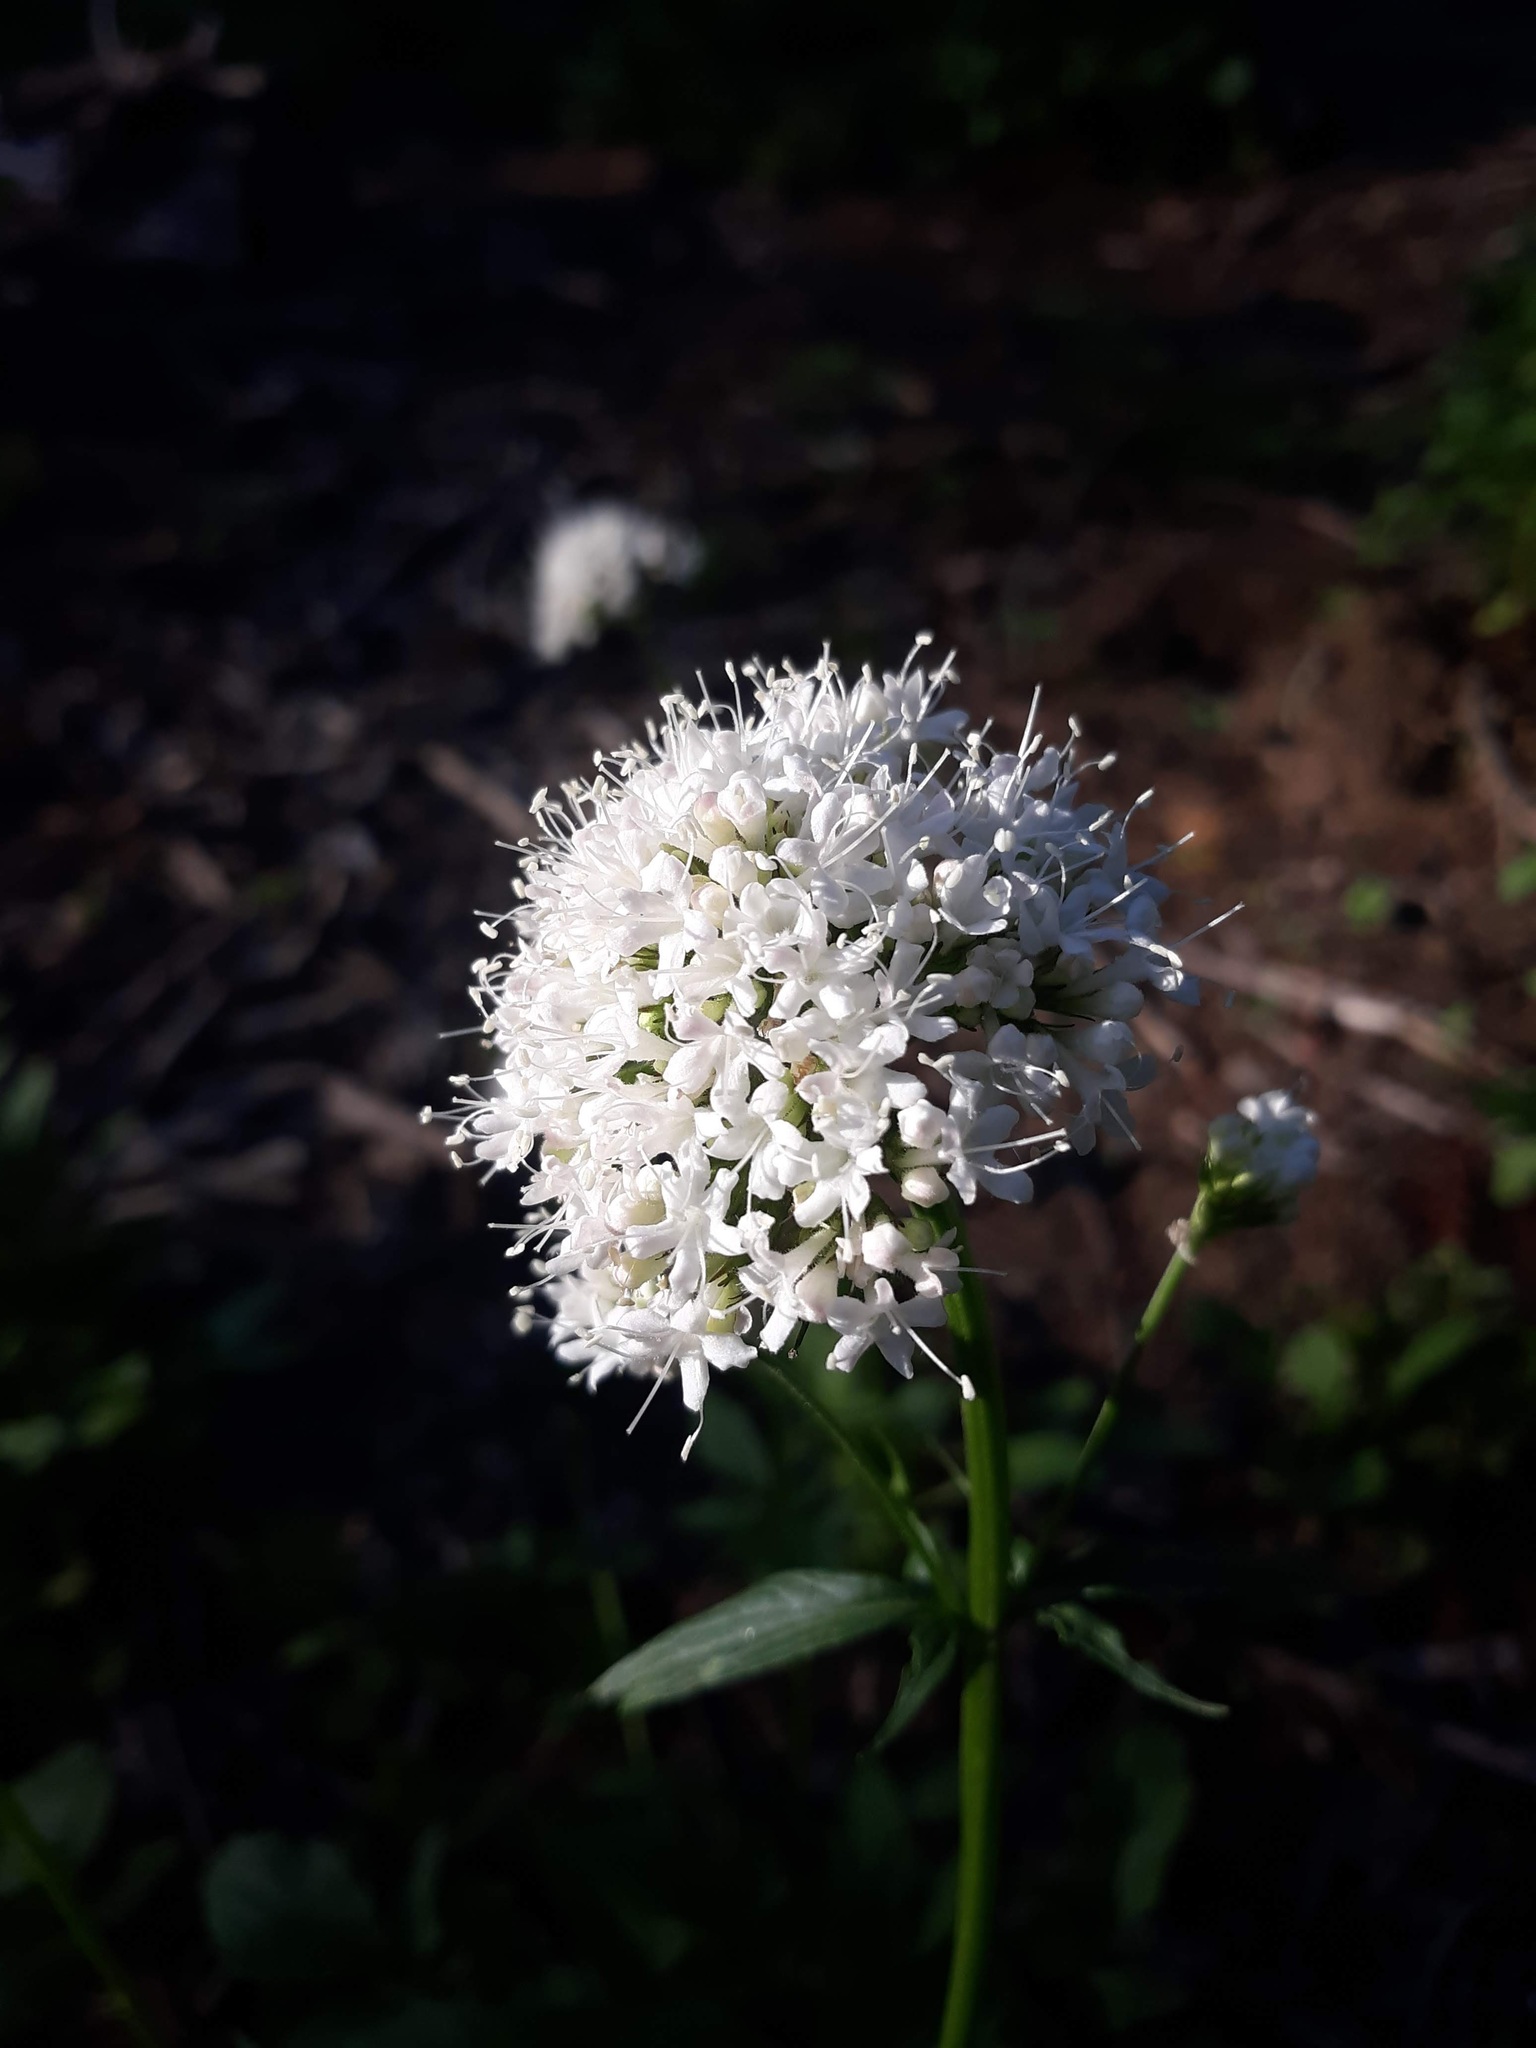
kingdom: Plantae
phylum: Tracheophyta
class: Magnoliopsida
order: Dipsacales
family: Caprifoliaceae
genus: Valeriana
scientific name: Valeriana sitchensis
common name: Pacific valerian
